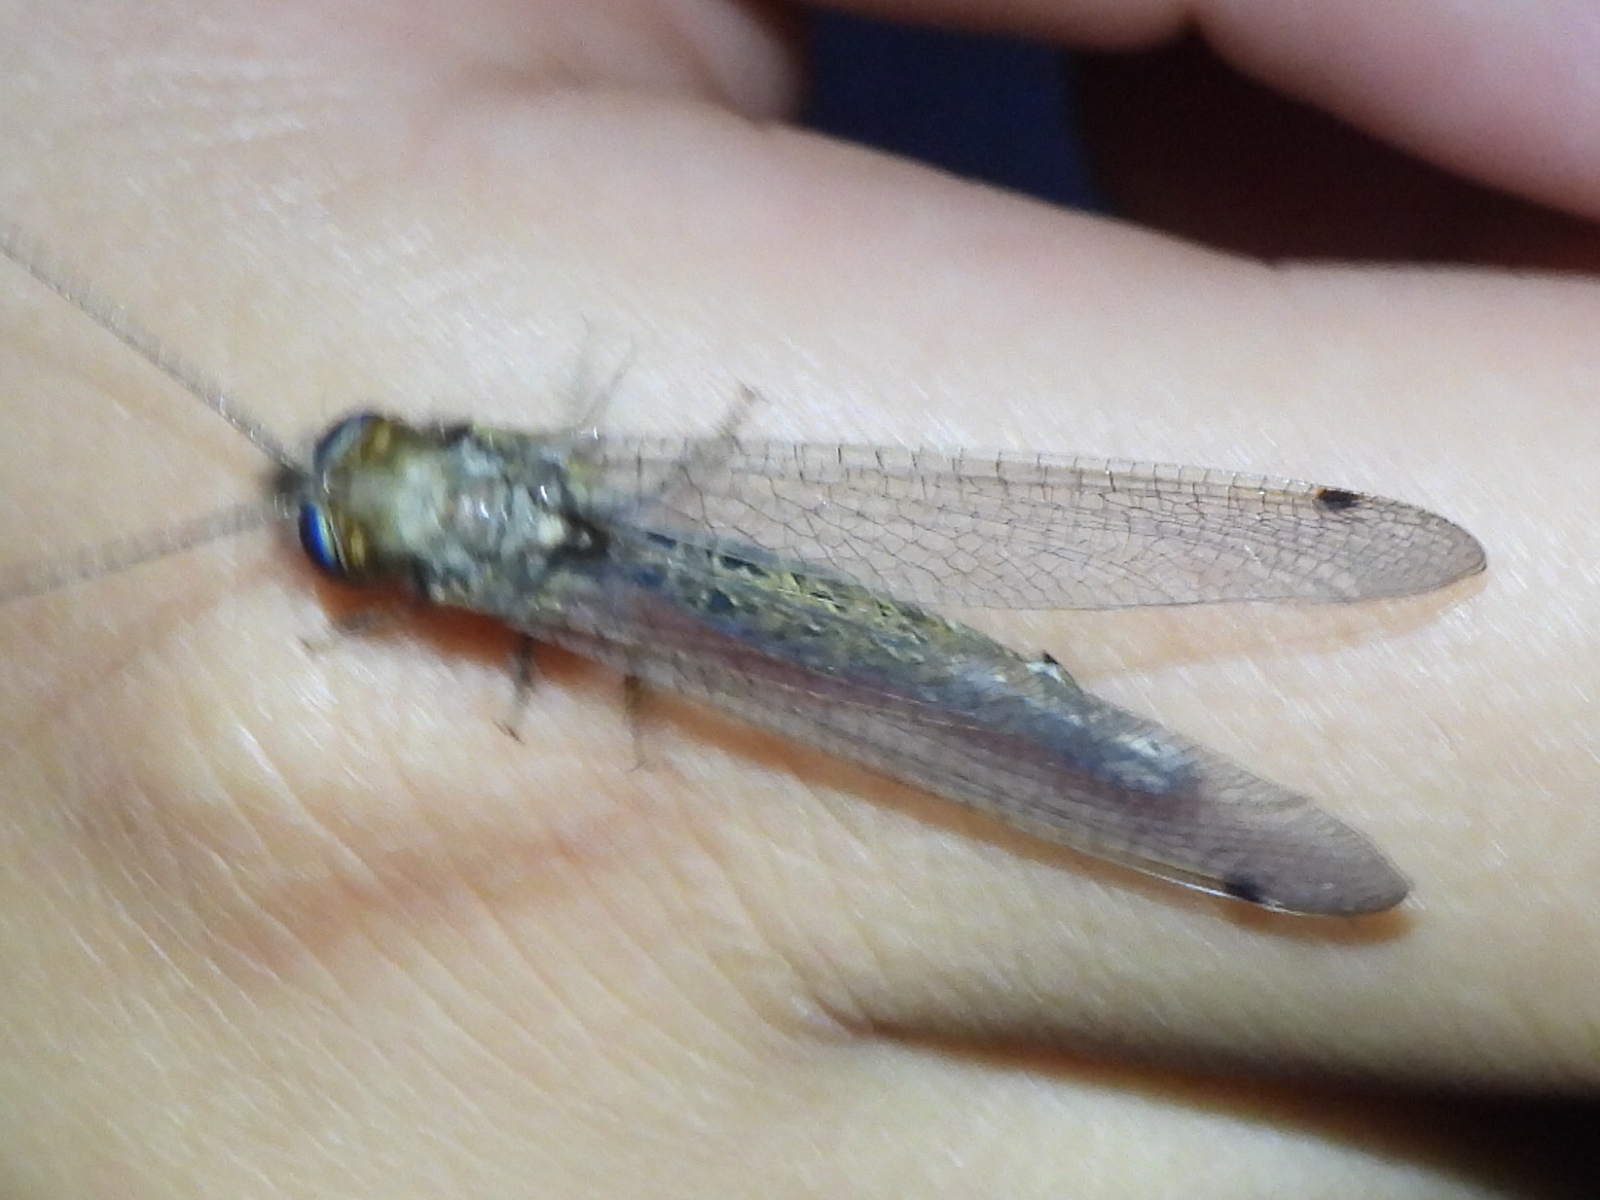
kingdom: Animalia
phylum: Arthropoda
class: Insecta
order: Neuroptera
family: Ascalaphidae
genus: Ululodes
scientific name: Ululodes macleayanus
